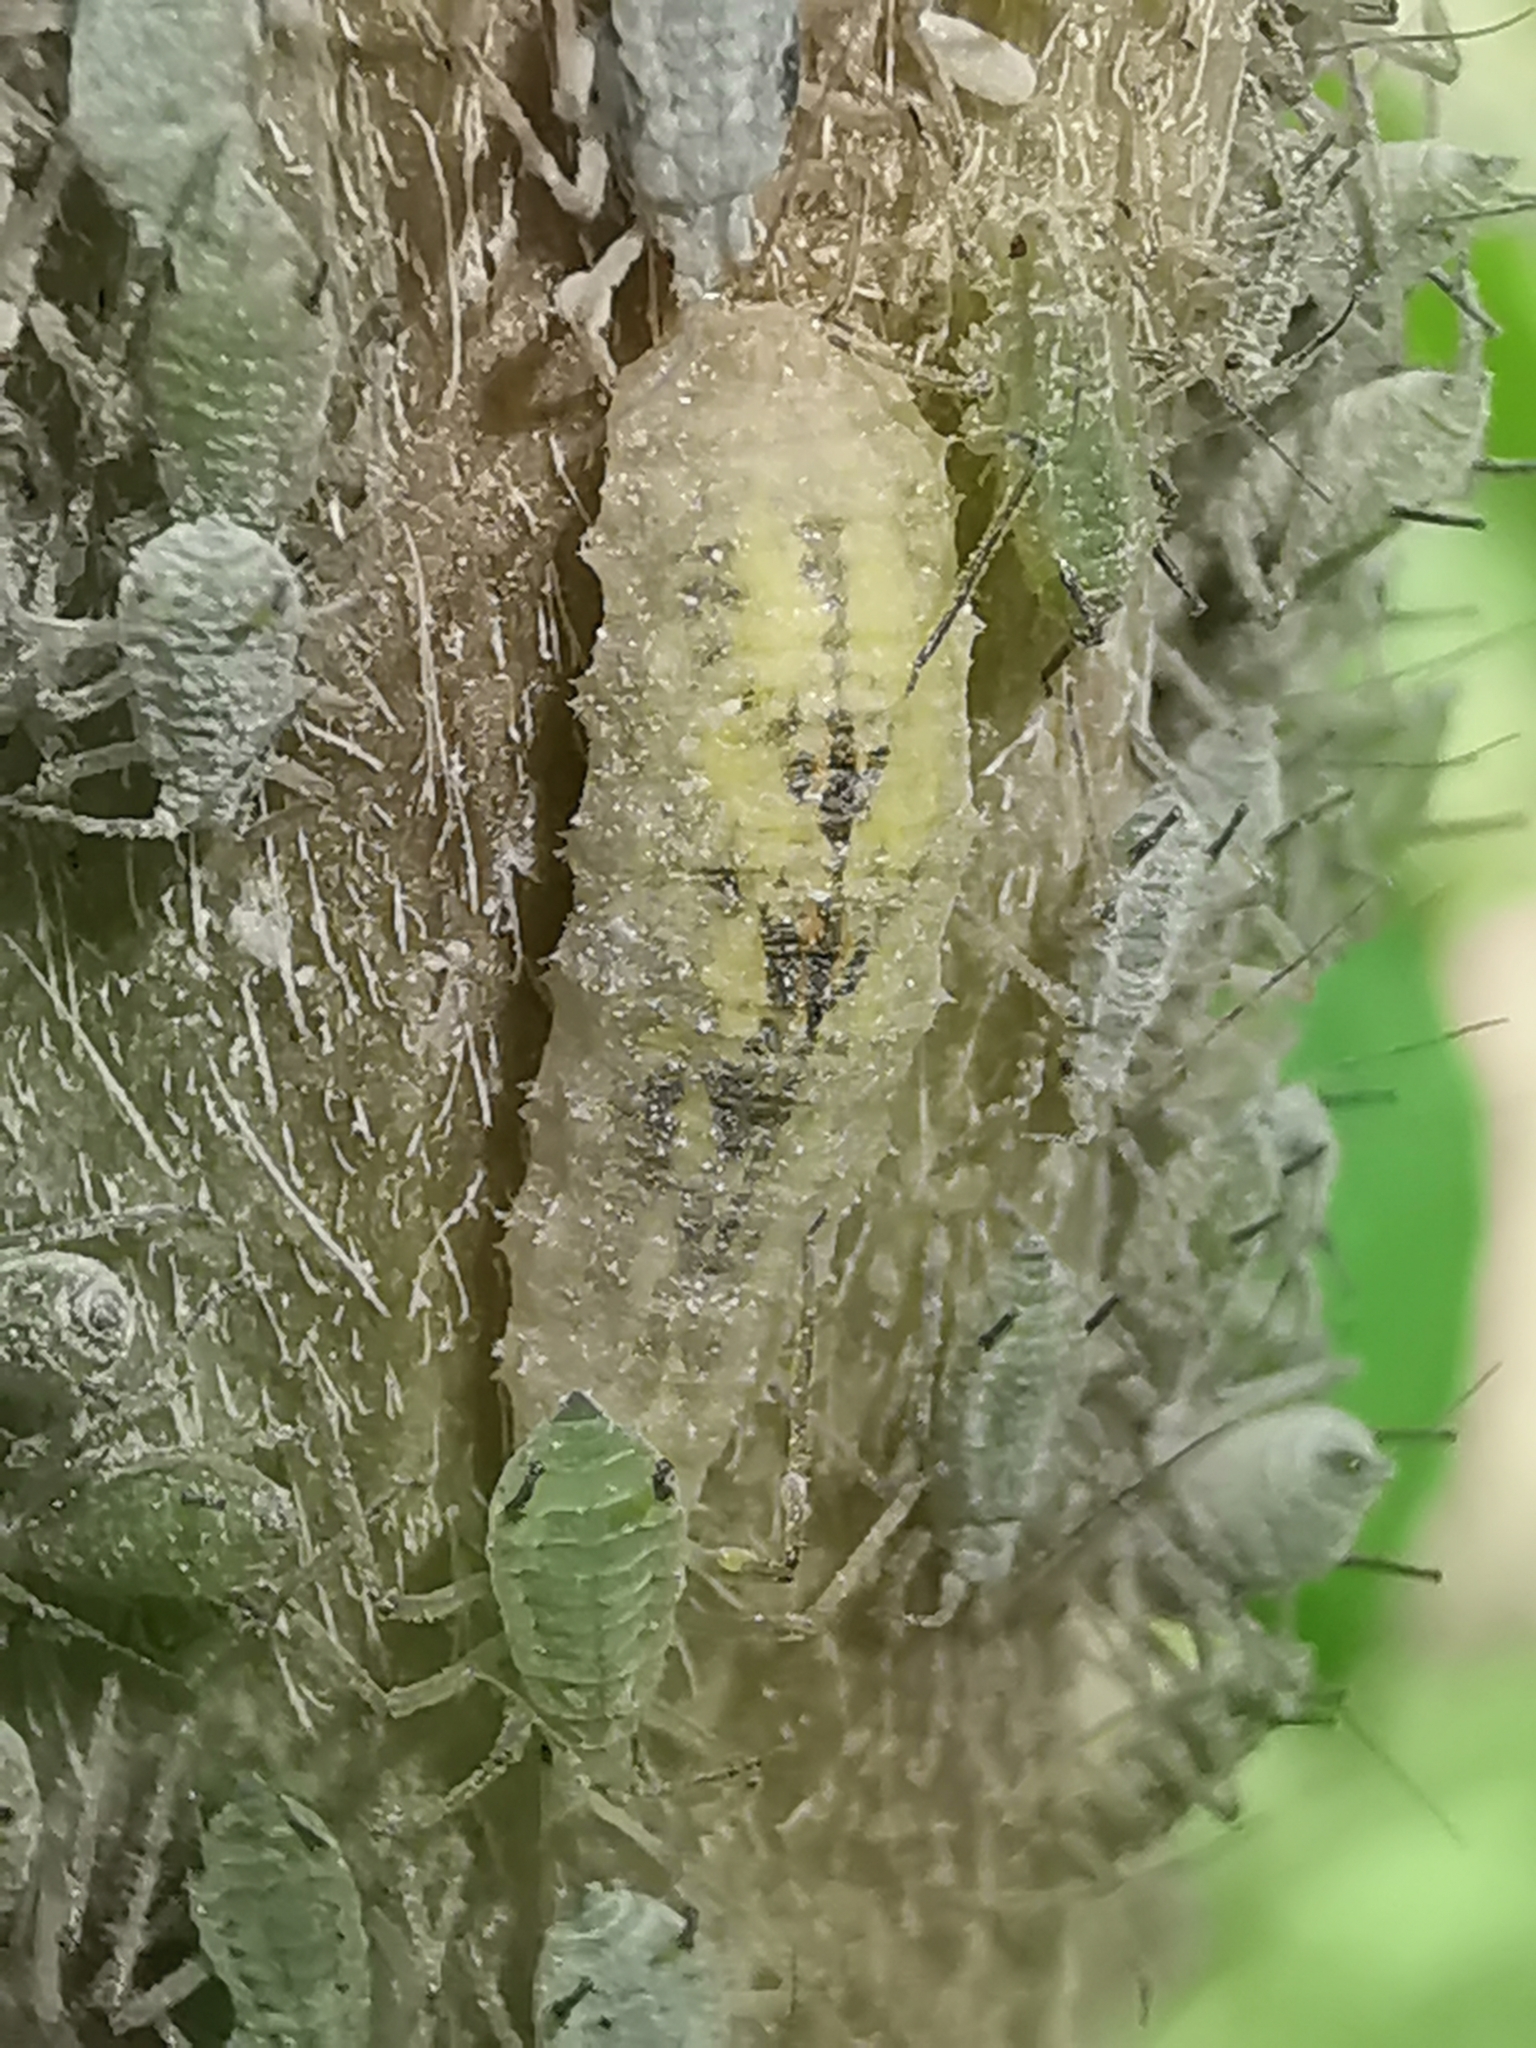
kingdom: Animalia
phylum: Arthropoda
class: Insecta
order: Diptera
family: Syrphidae
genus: Syrphus
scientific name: Syrphus
